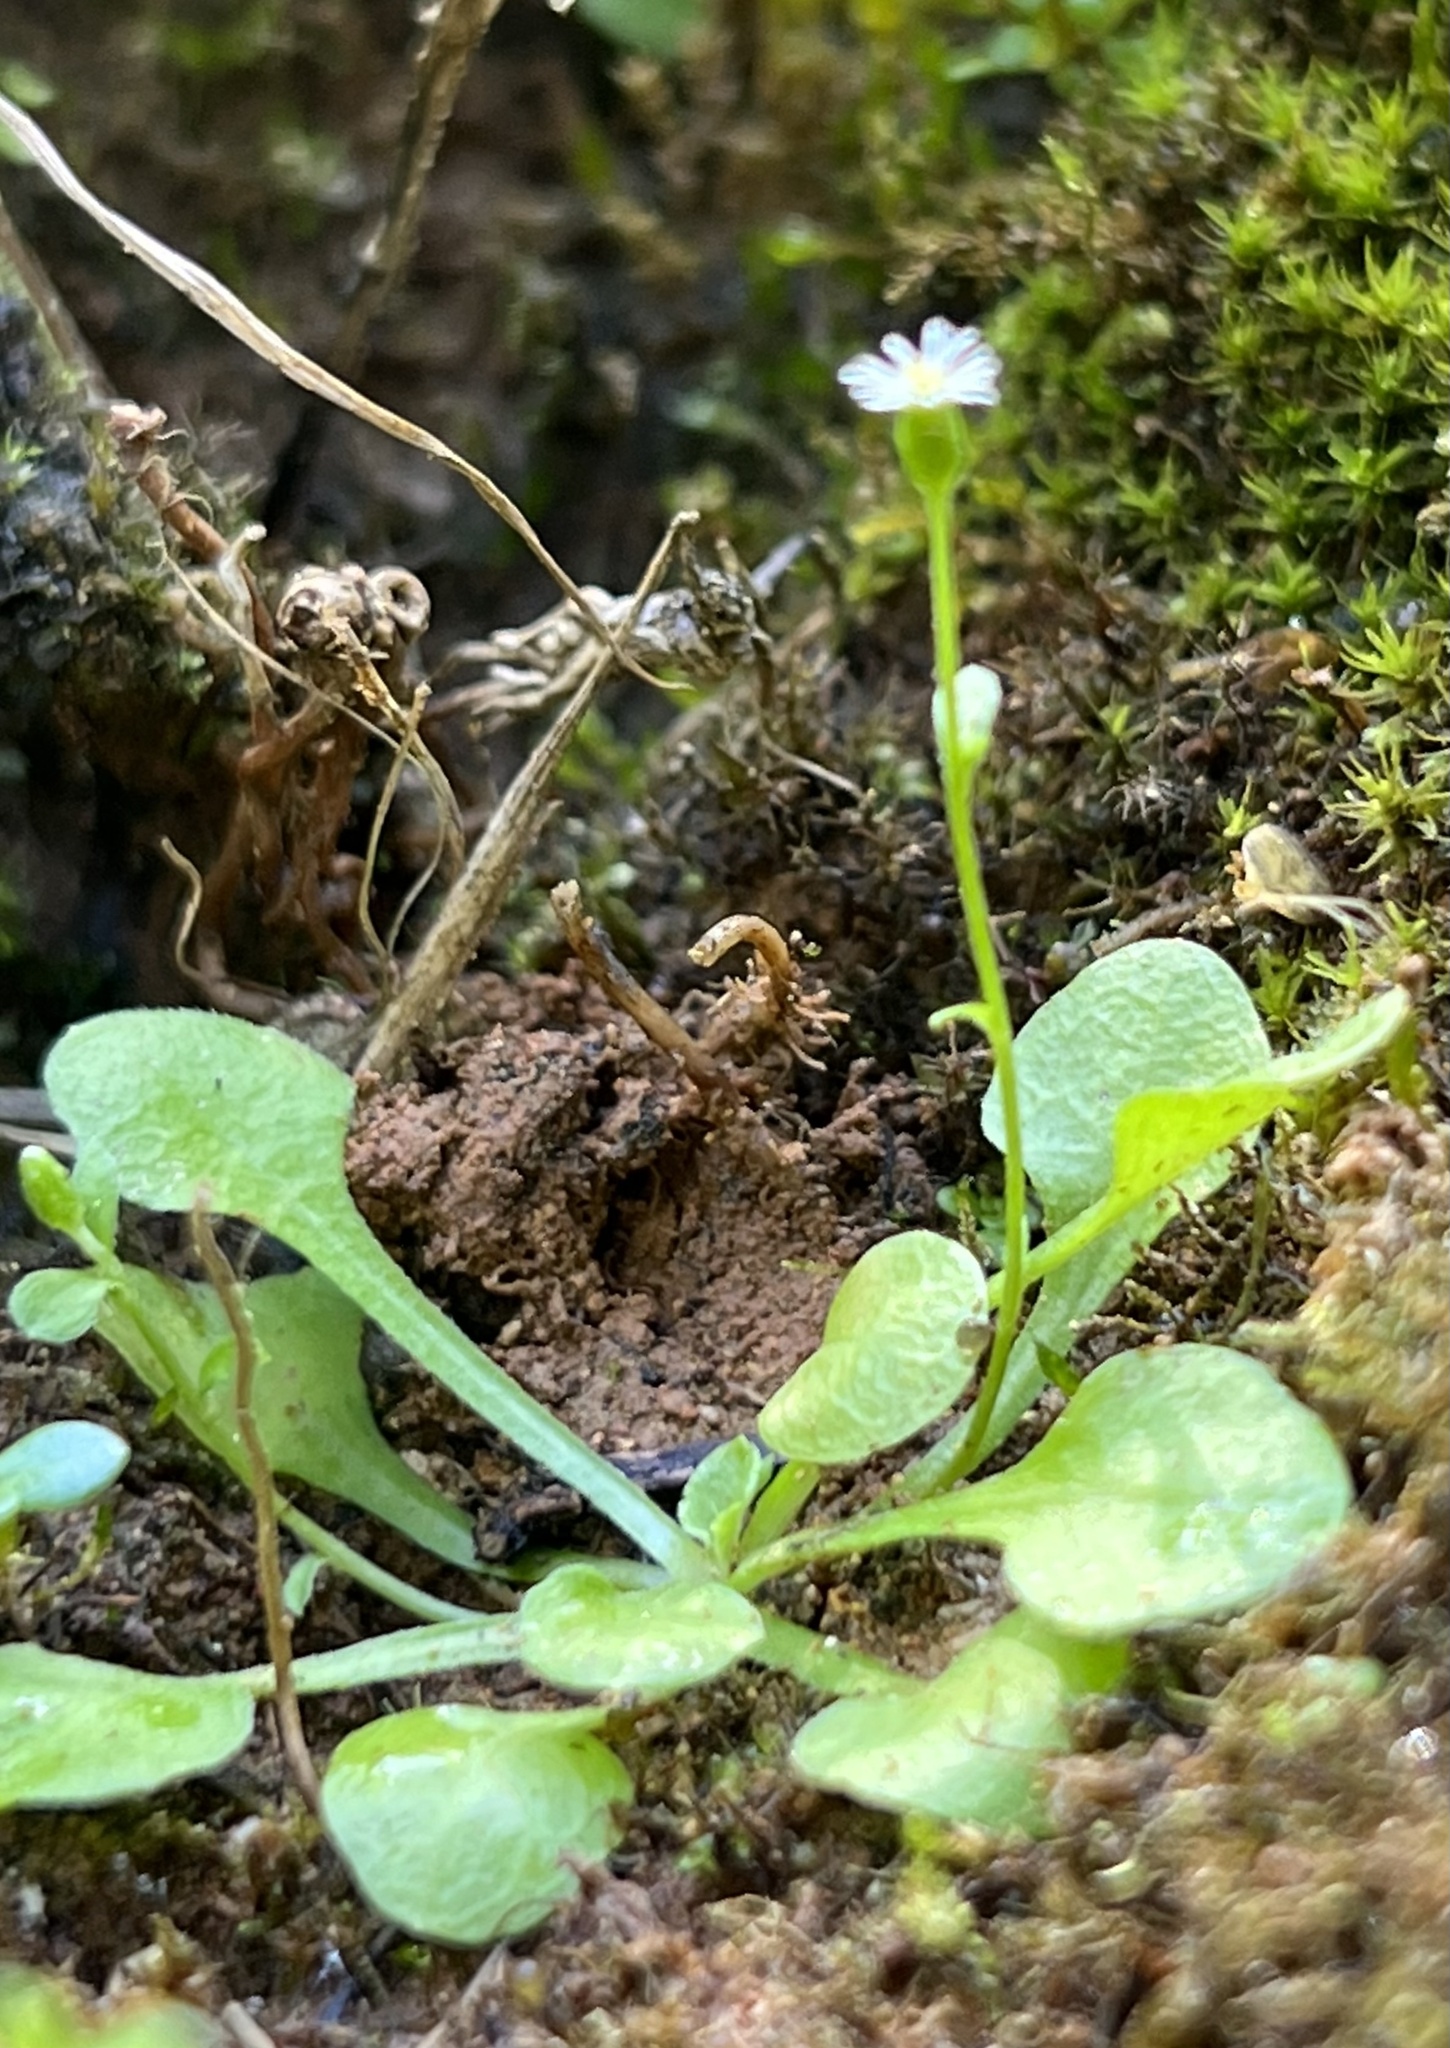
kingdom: Plantae
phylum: Tracheophyta
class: Magnoliopsida
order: Asterales
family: Asteraceae
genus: Erigeron
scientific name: Erigeron bellioides
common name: Bellorita
